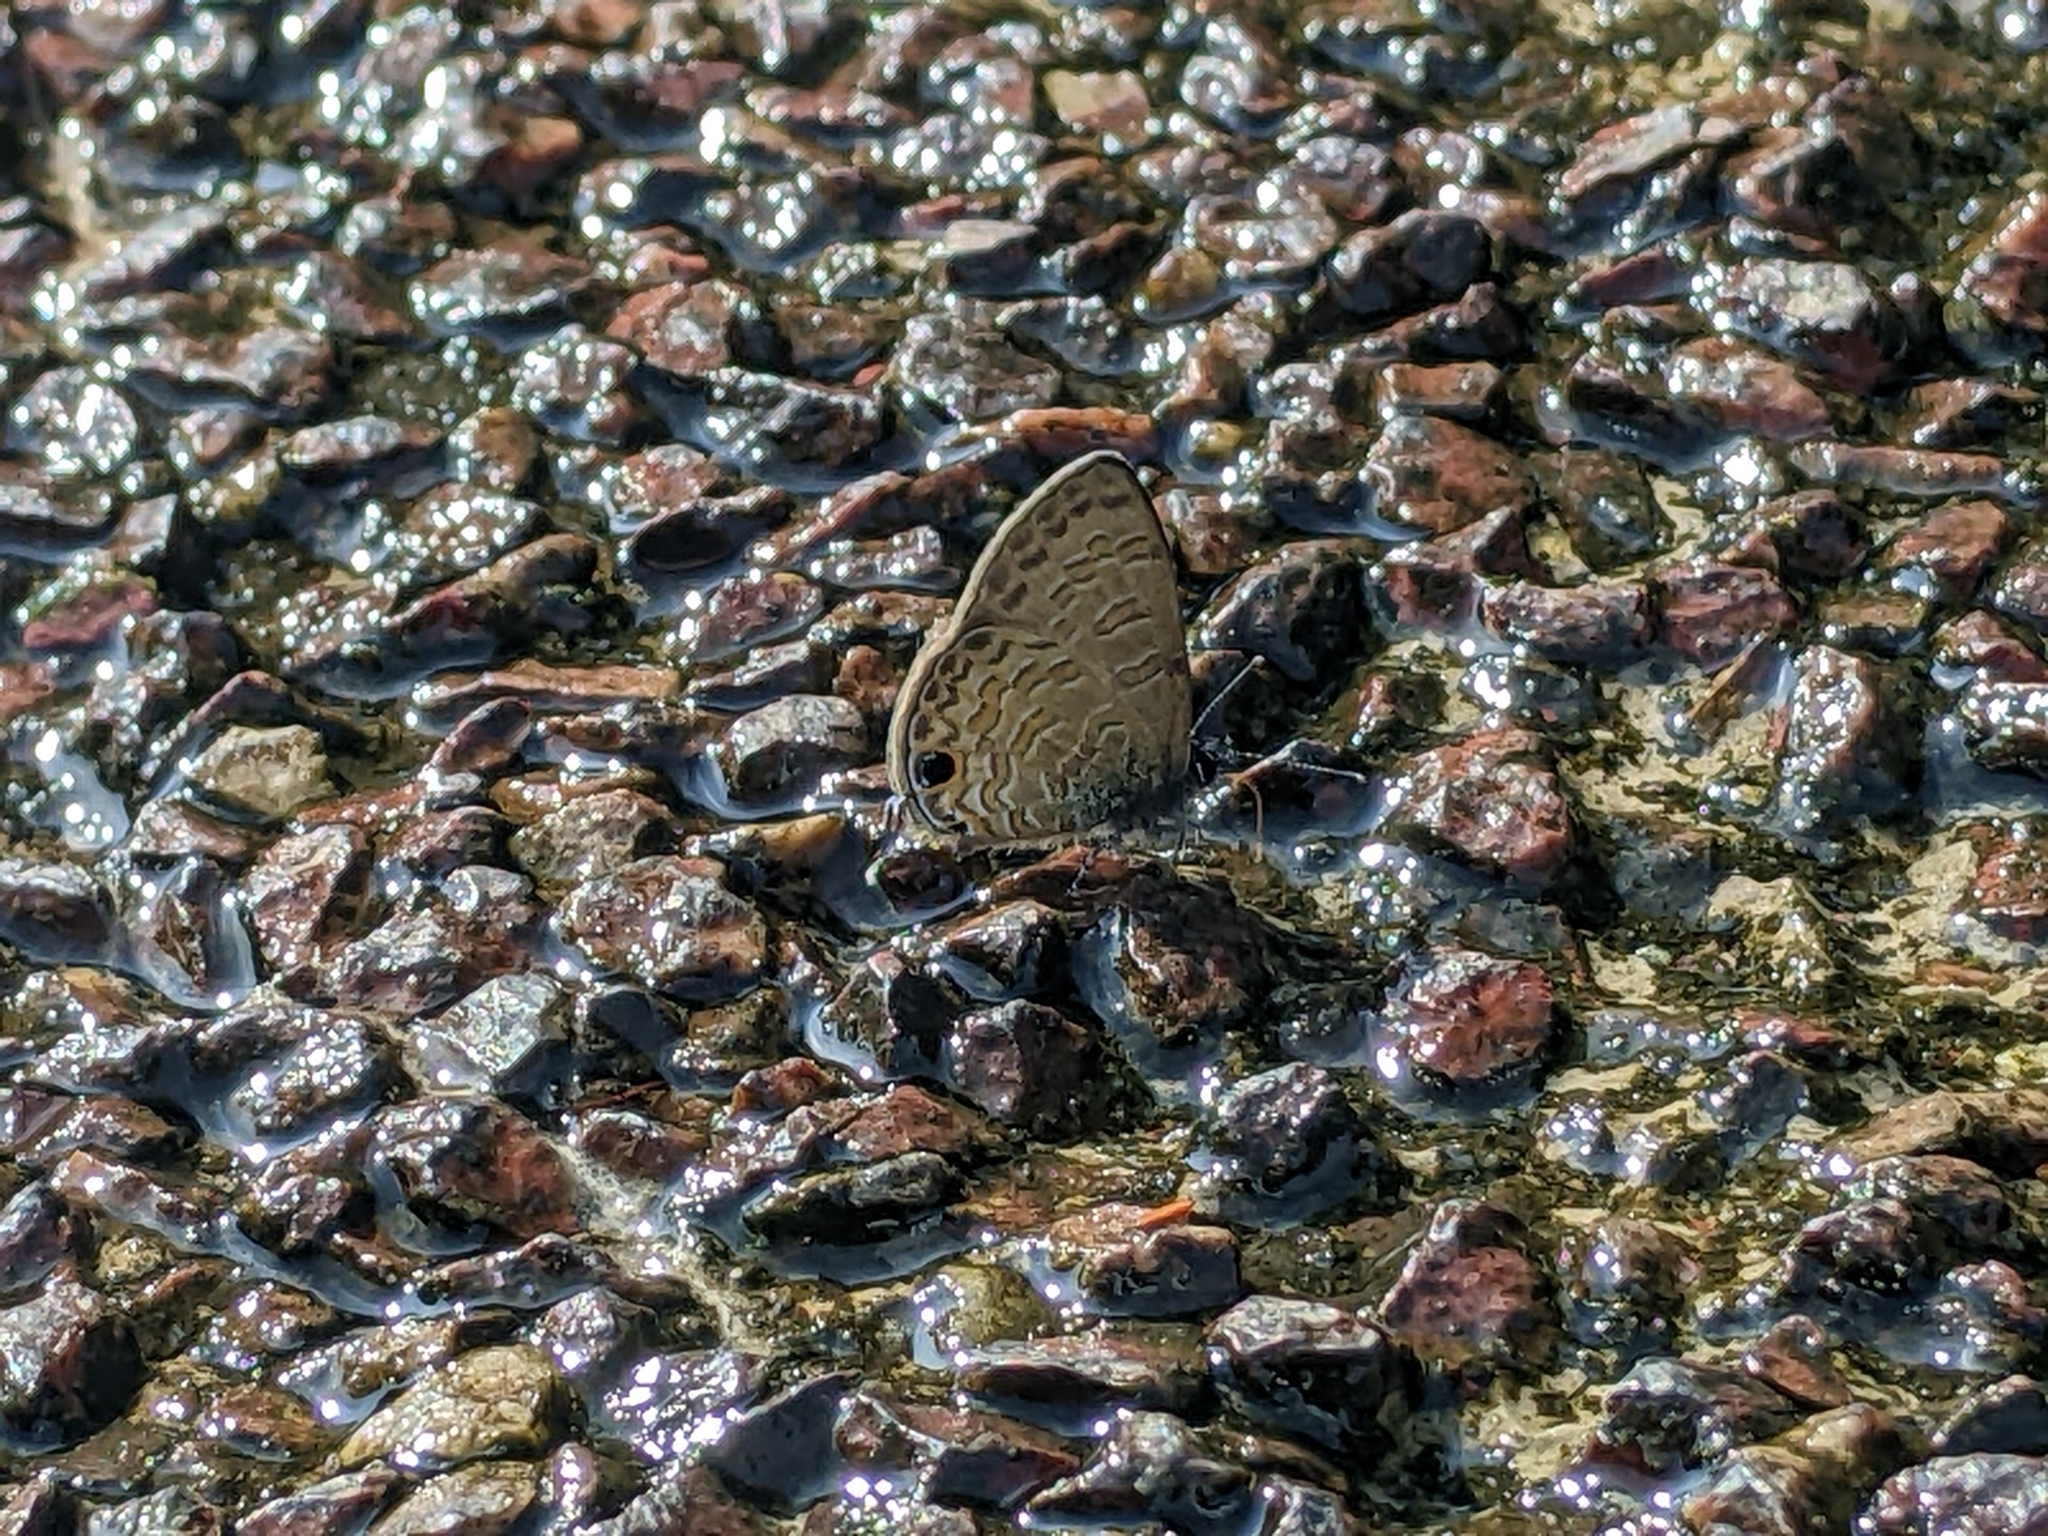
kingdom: Animalia
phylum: Arthropoda
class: Insecta
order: Lepidoptera
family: Lycaenidae
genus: Prosotas
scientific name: Prosotas nora
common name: Common line blue
